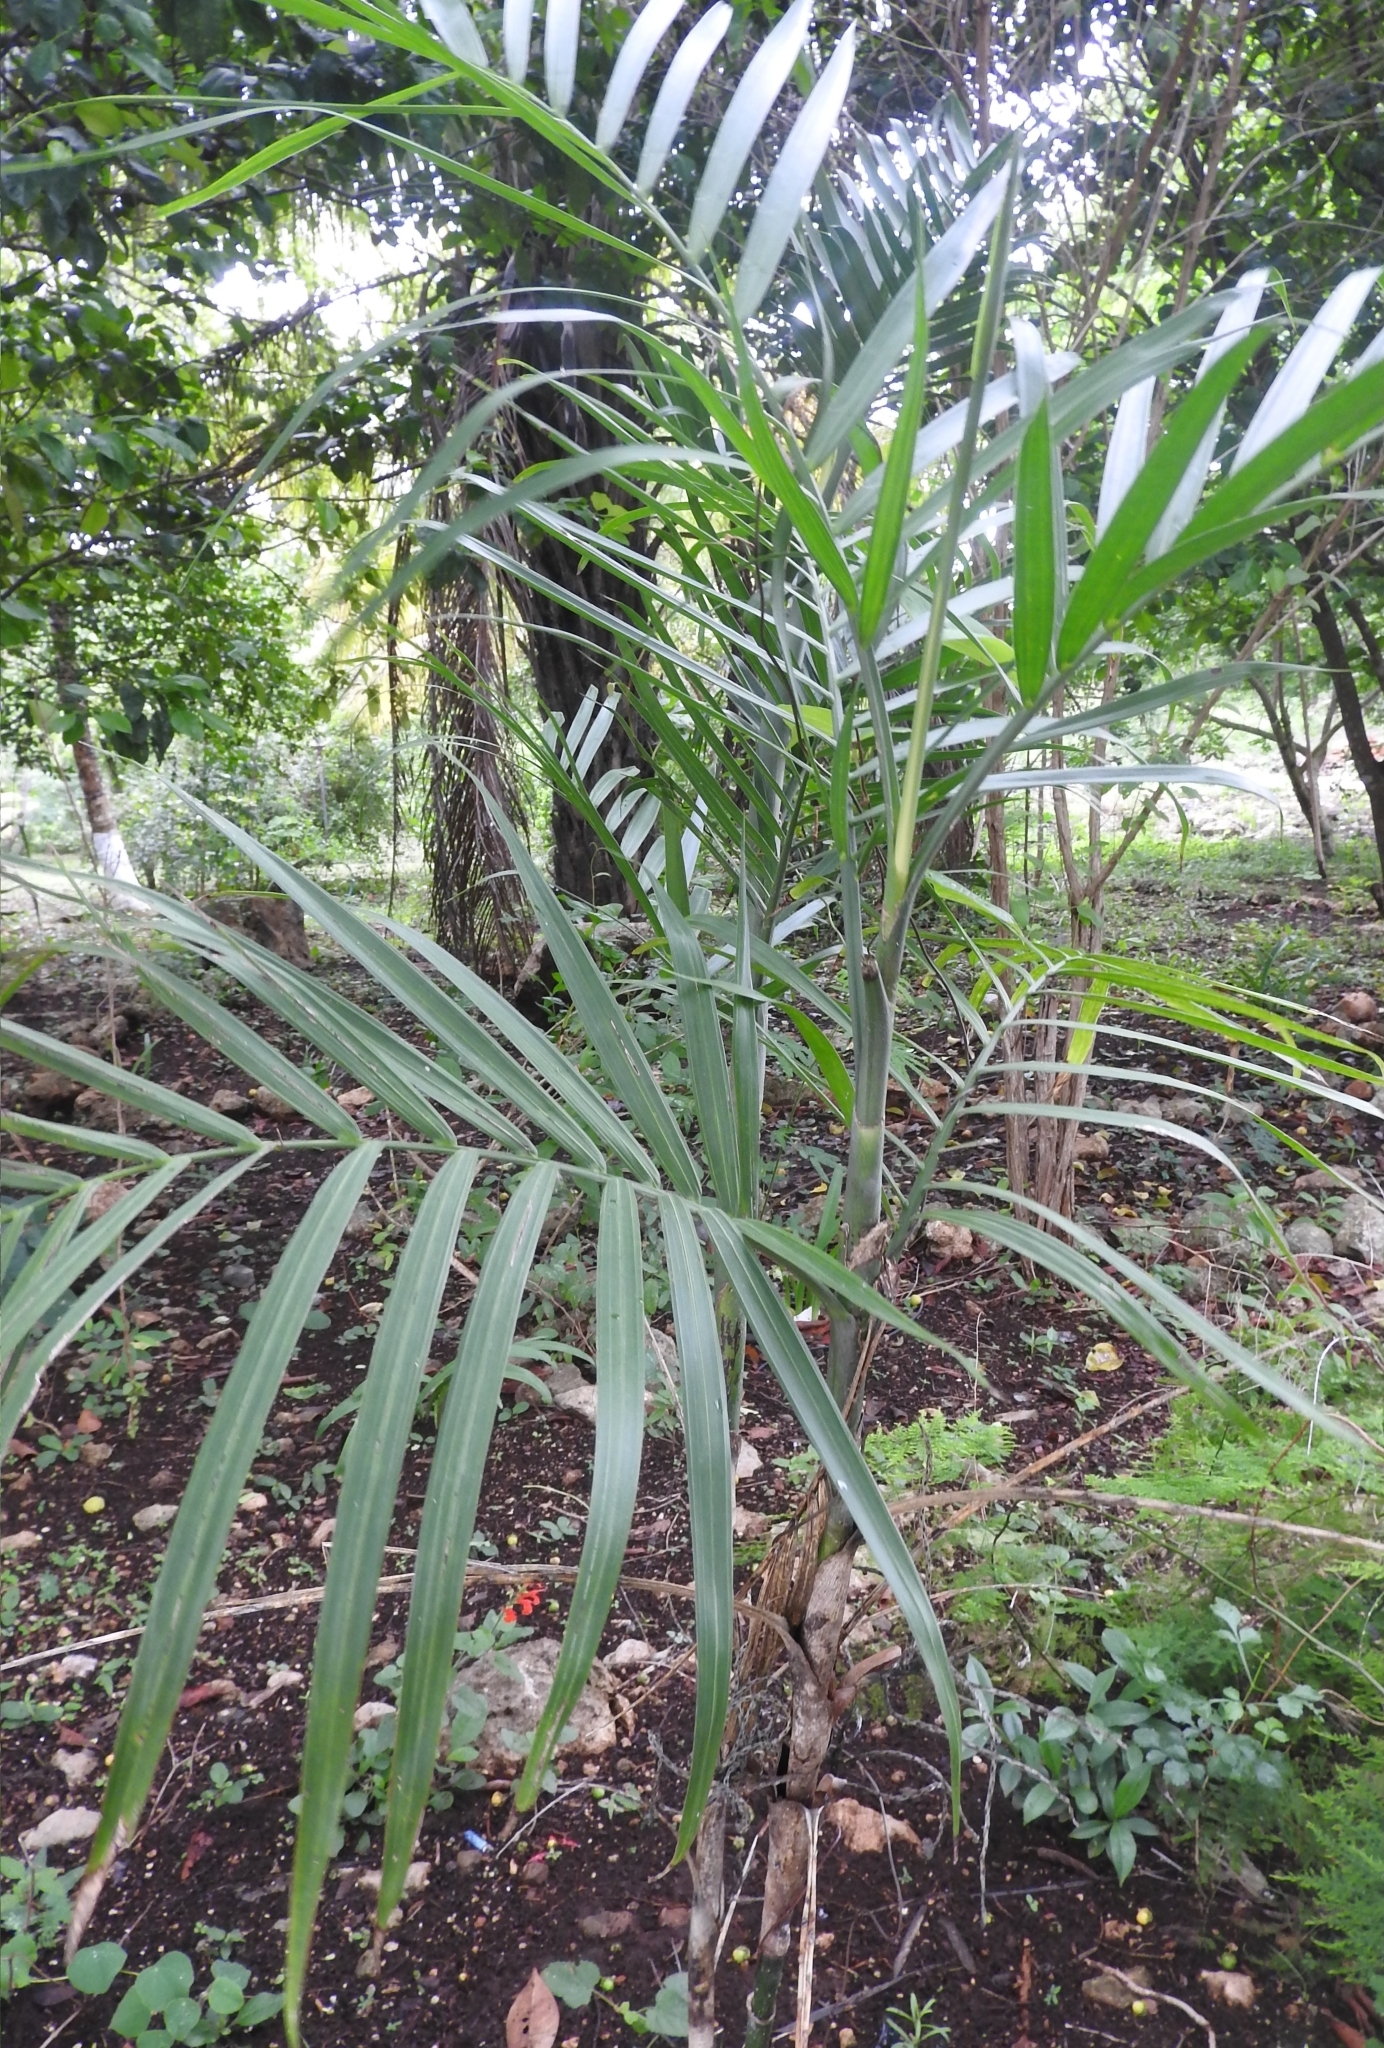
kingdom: Plantae
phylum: Tracheophyta
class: Liliopsida
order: Arecales
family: Arecaceae
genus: Chamaedorea
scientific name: Chamaedorea seifrizii
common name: Seifriz's chamaedorea
